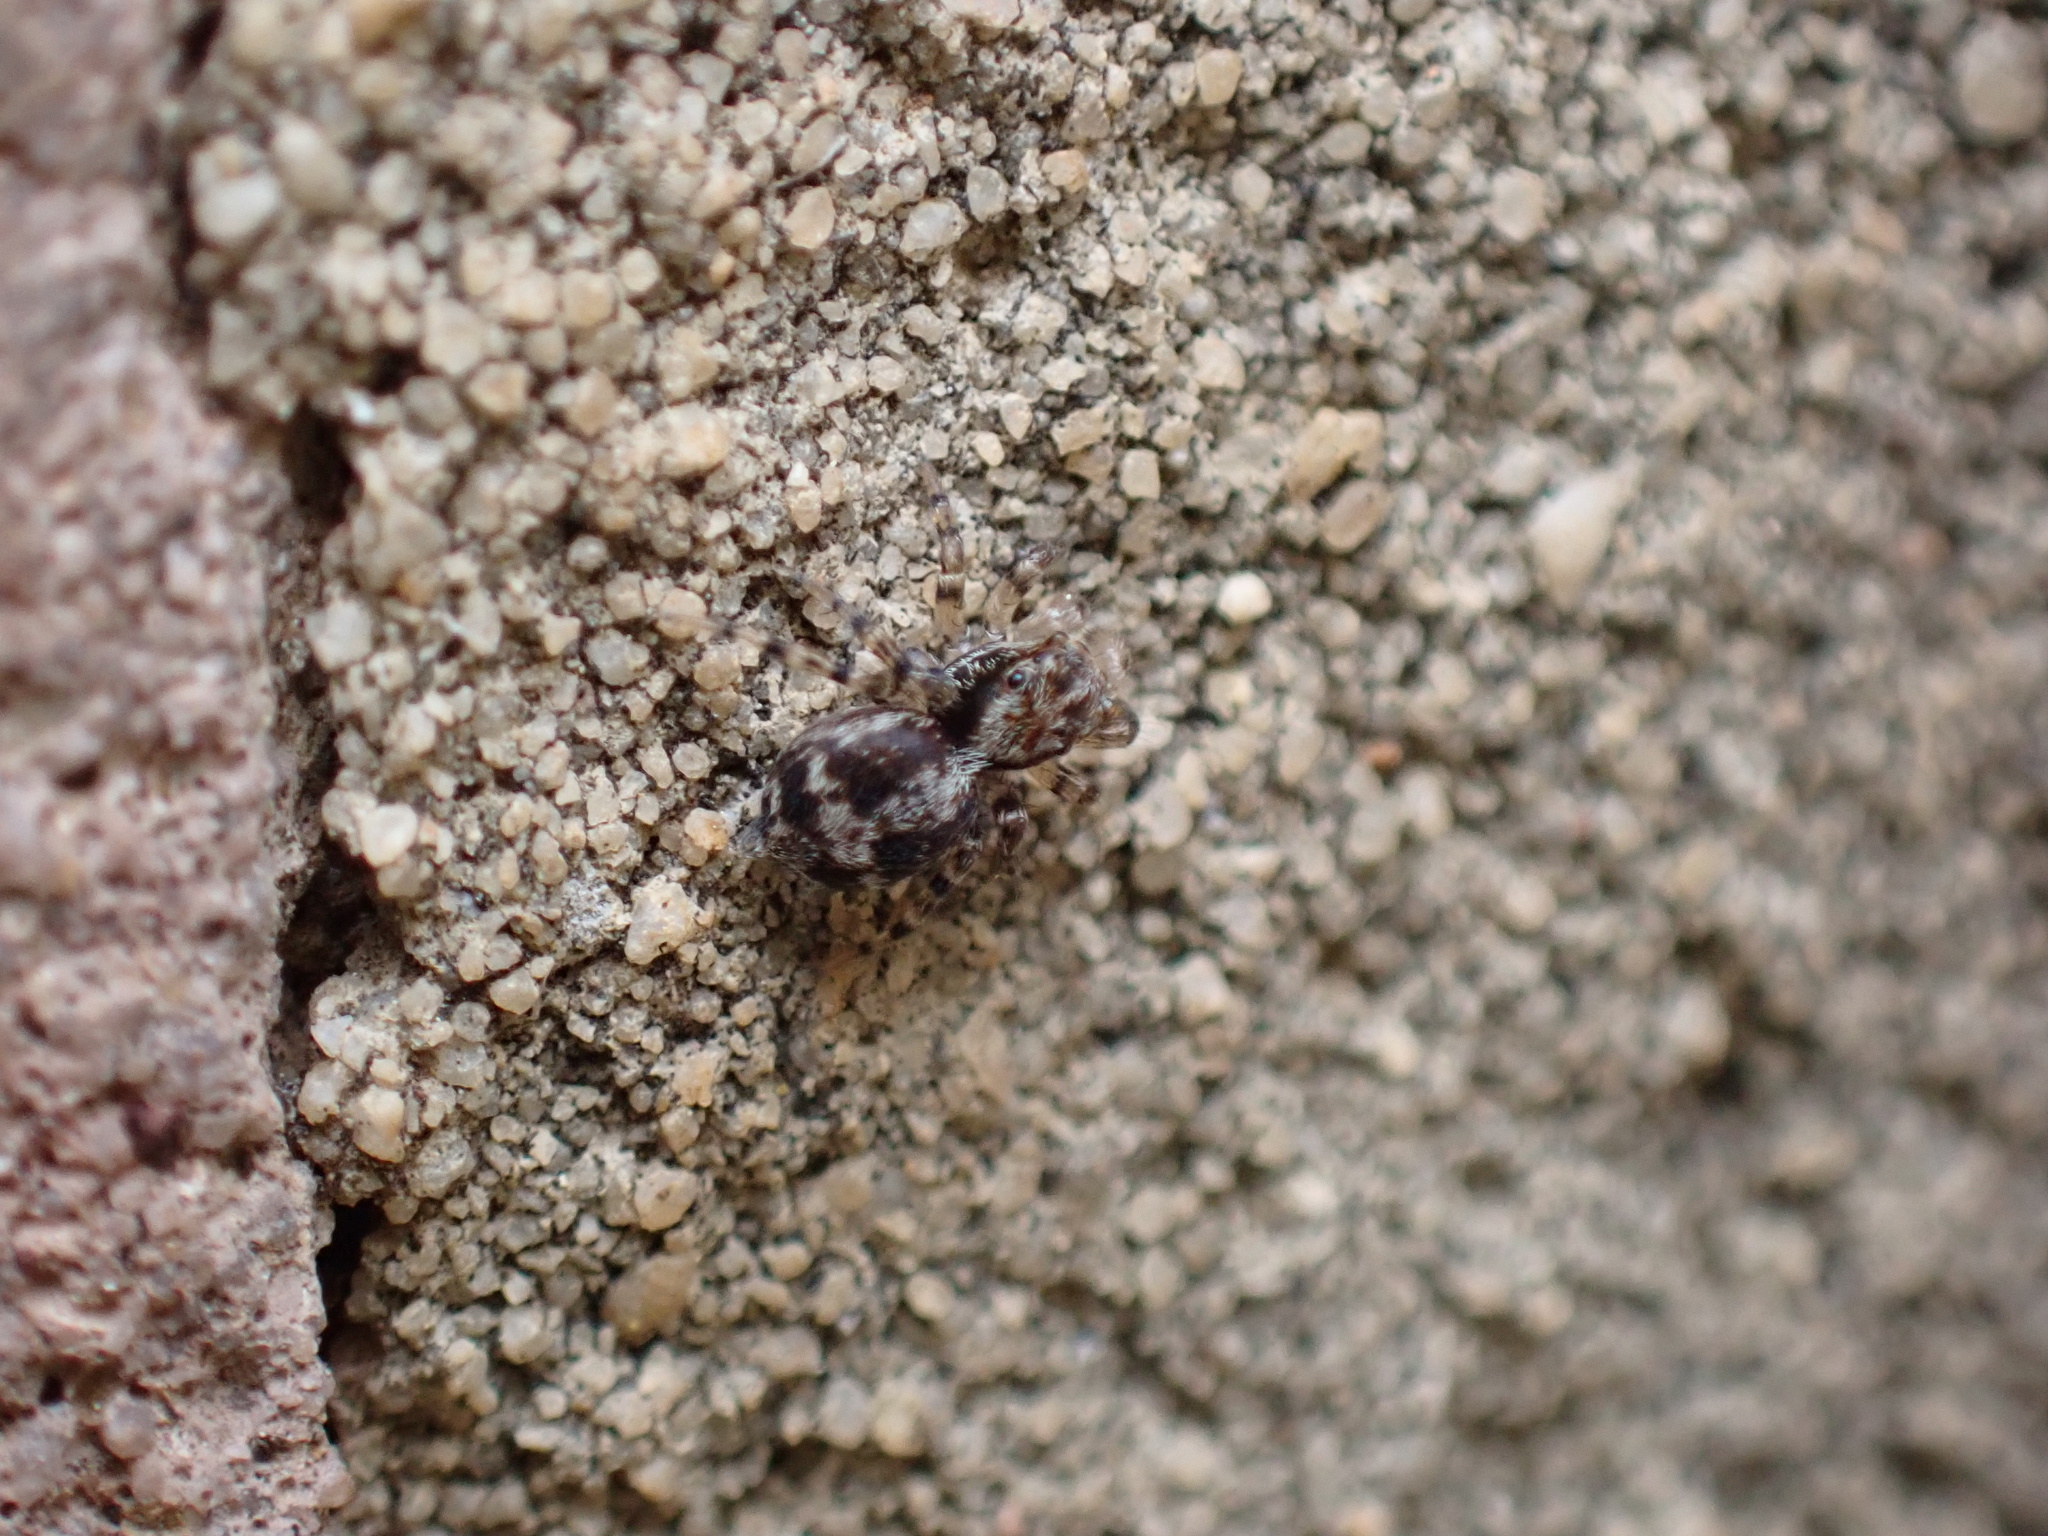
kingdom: Animalia
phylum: Arthropoda
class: Arachnida
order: Araneae
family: Salticidae
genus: Naphrys
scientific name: Naphrys pulex
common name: Flea jumping spider
